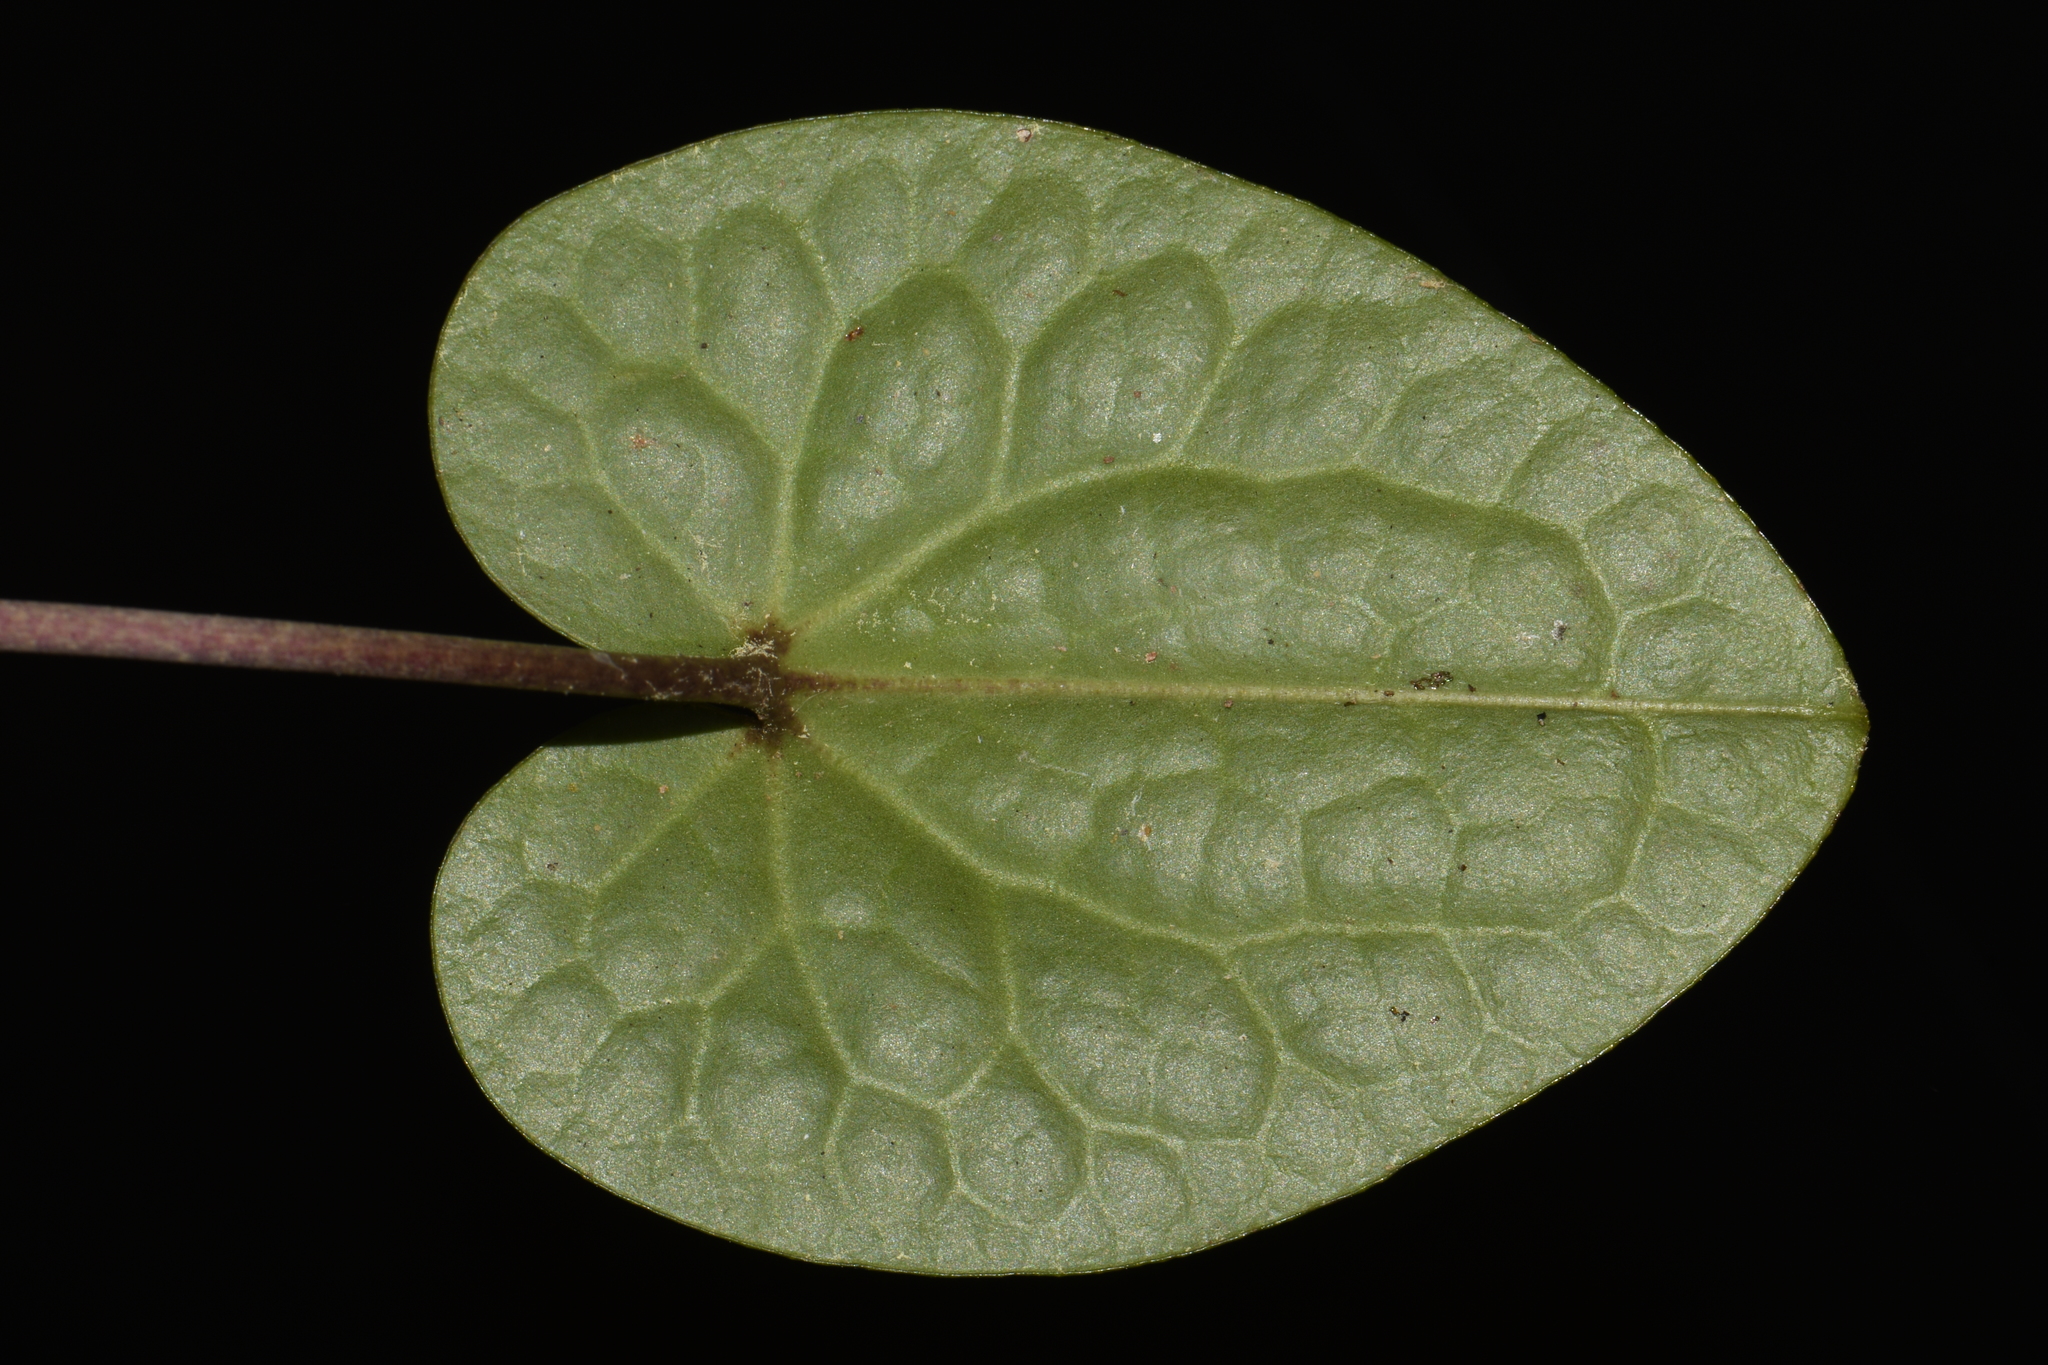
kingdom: Plantae
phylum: Tracheophyta
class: Magnoliopsida
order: Piperales
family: Aristolochiaceae
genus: Hexastylis
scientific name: Hexastylis shuttleworthii
